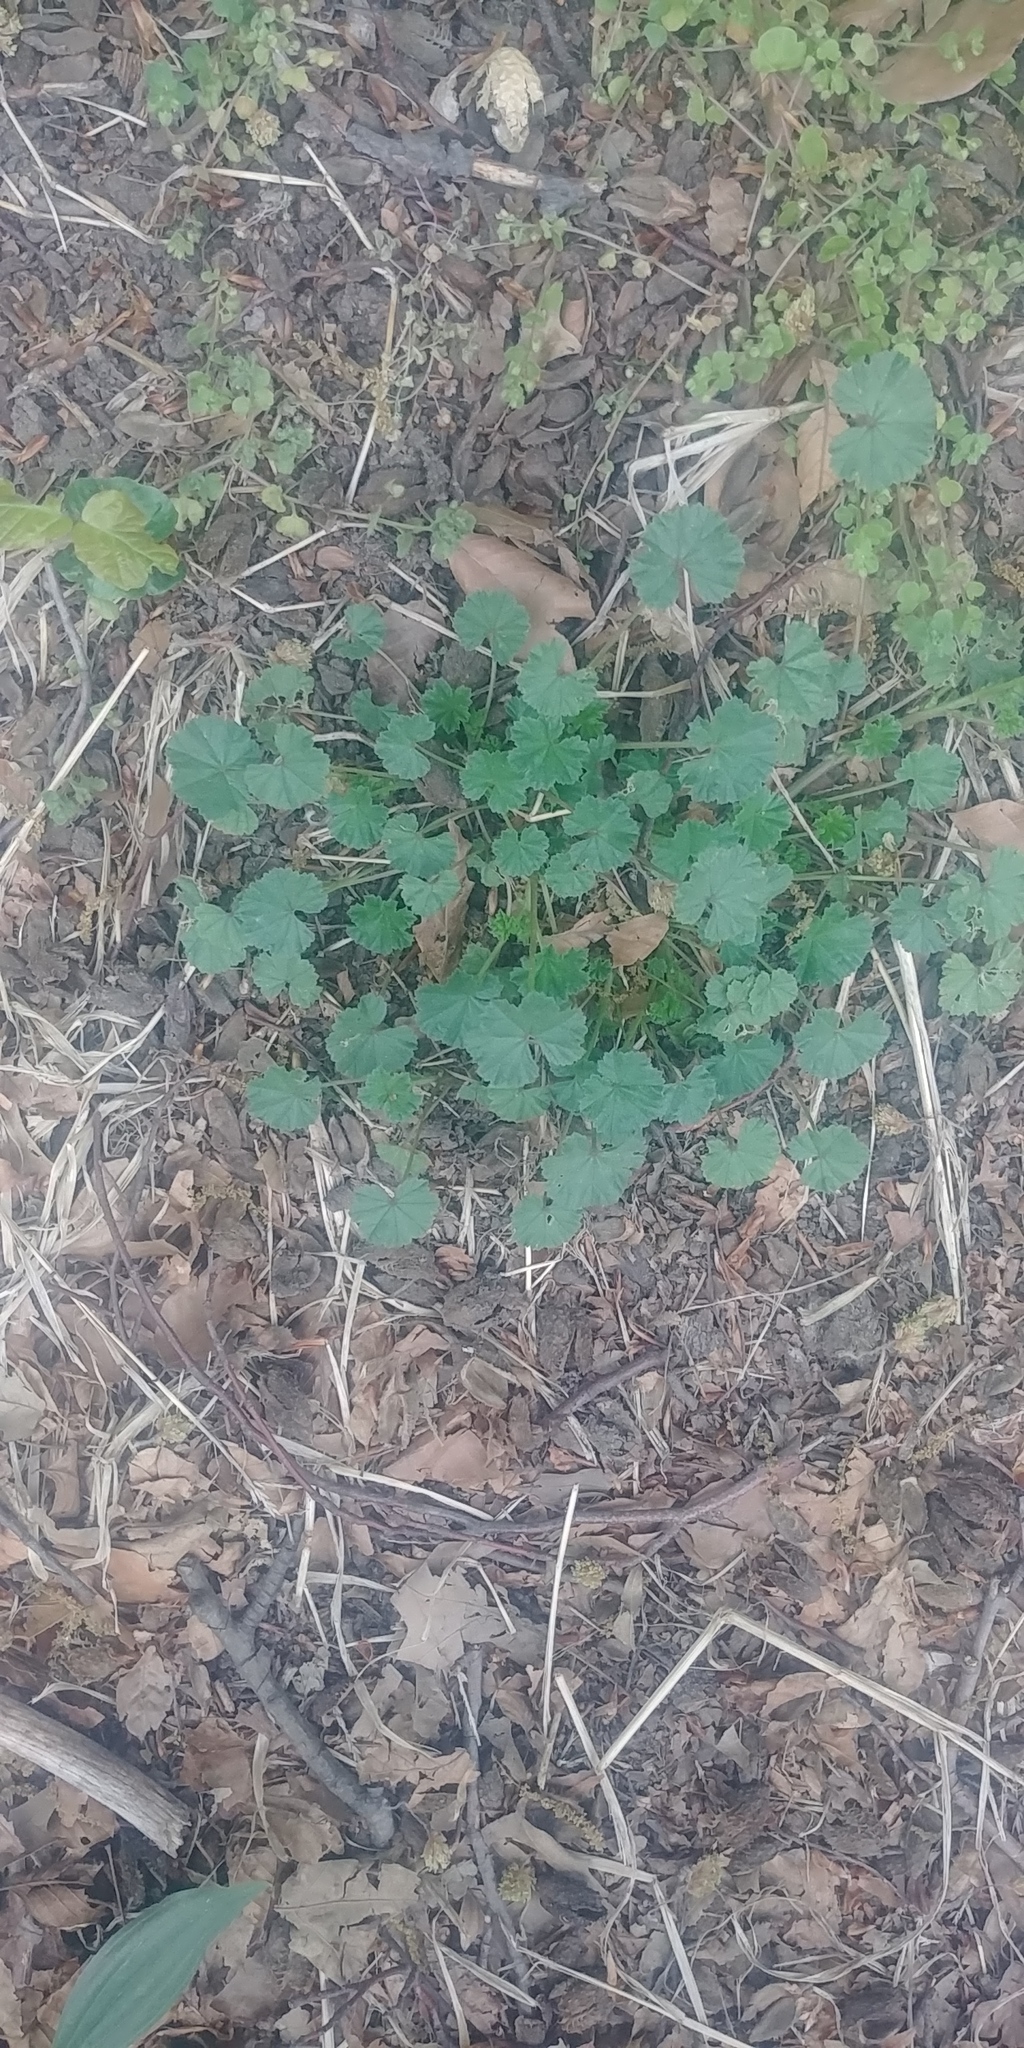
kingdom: Plantae
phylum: Tracheophyta
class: Magnoliopsida
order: Malvales
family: Malvaceae
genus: Malva
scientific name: Malva neglecta
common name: Common mallow
